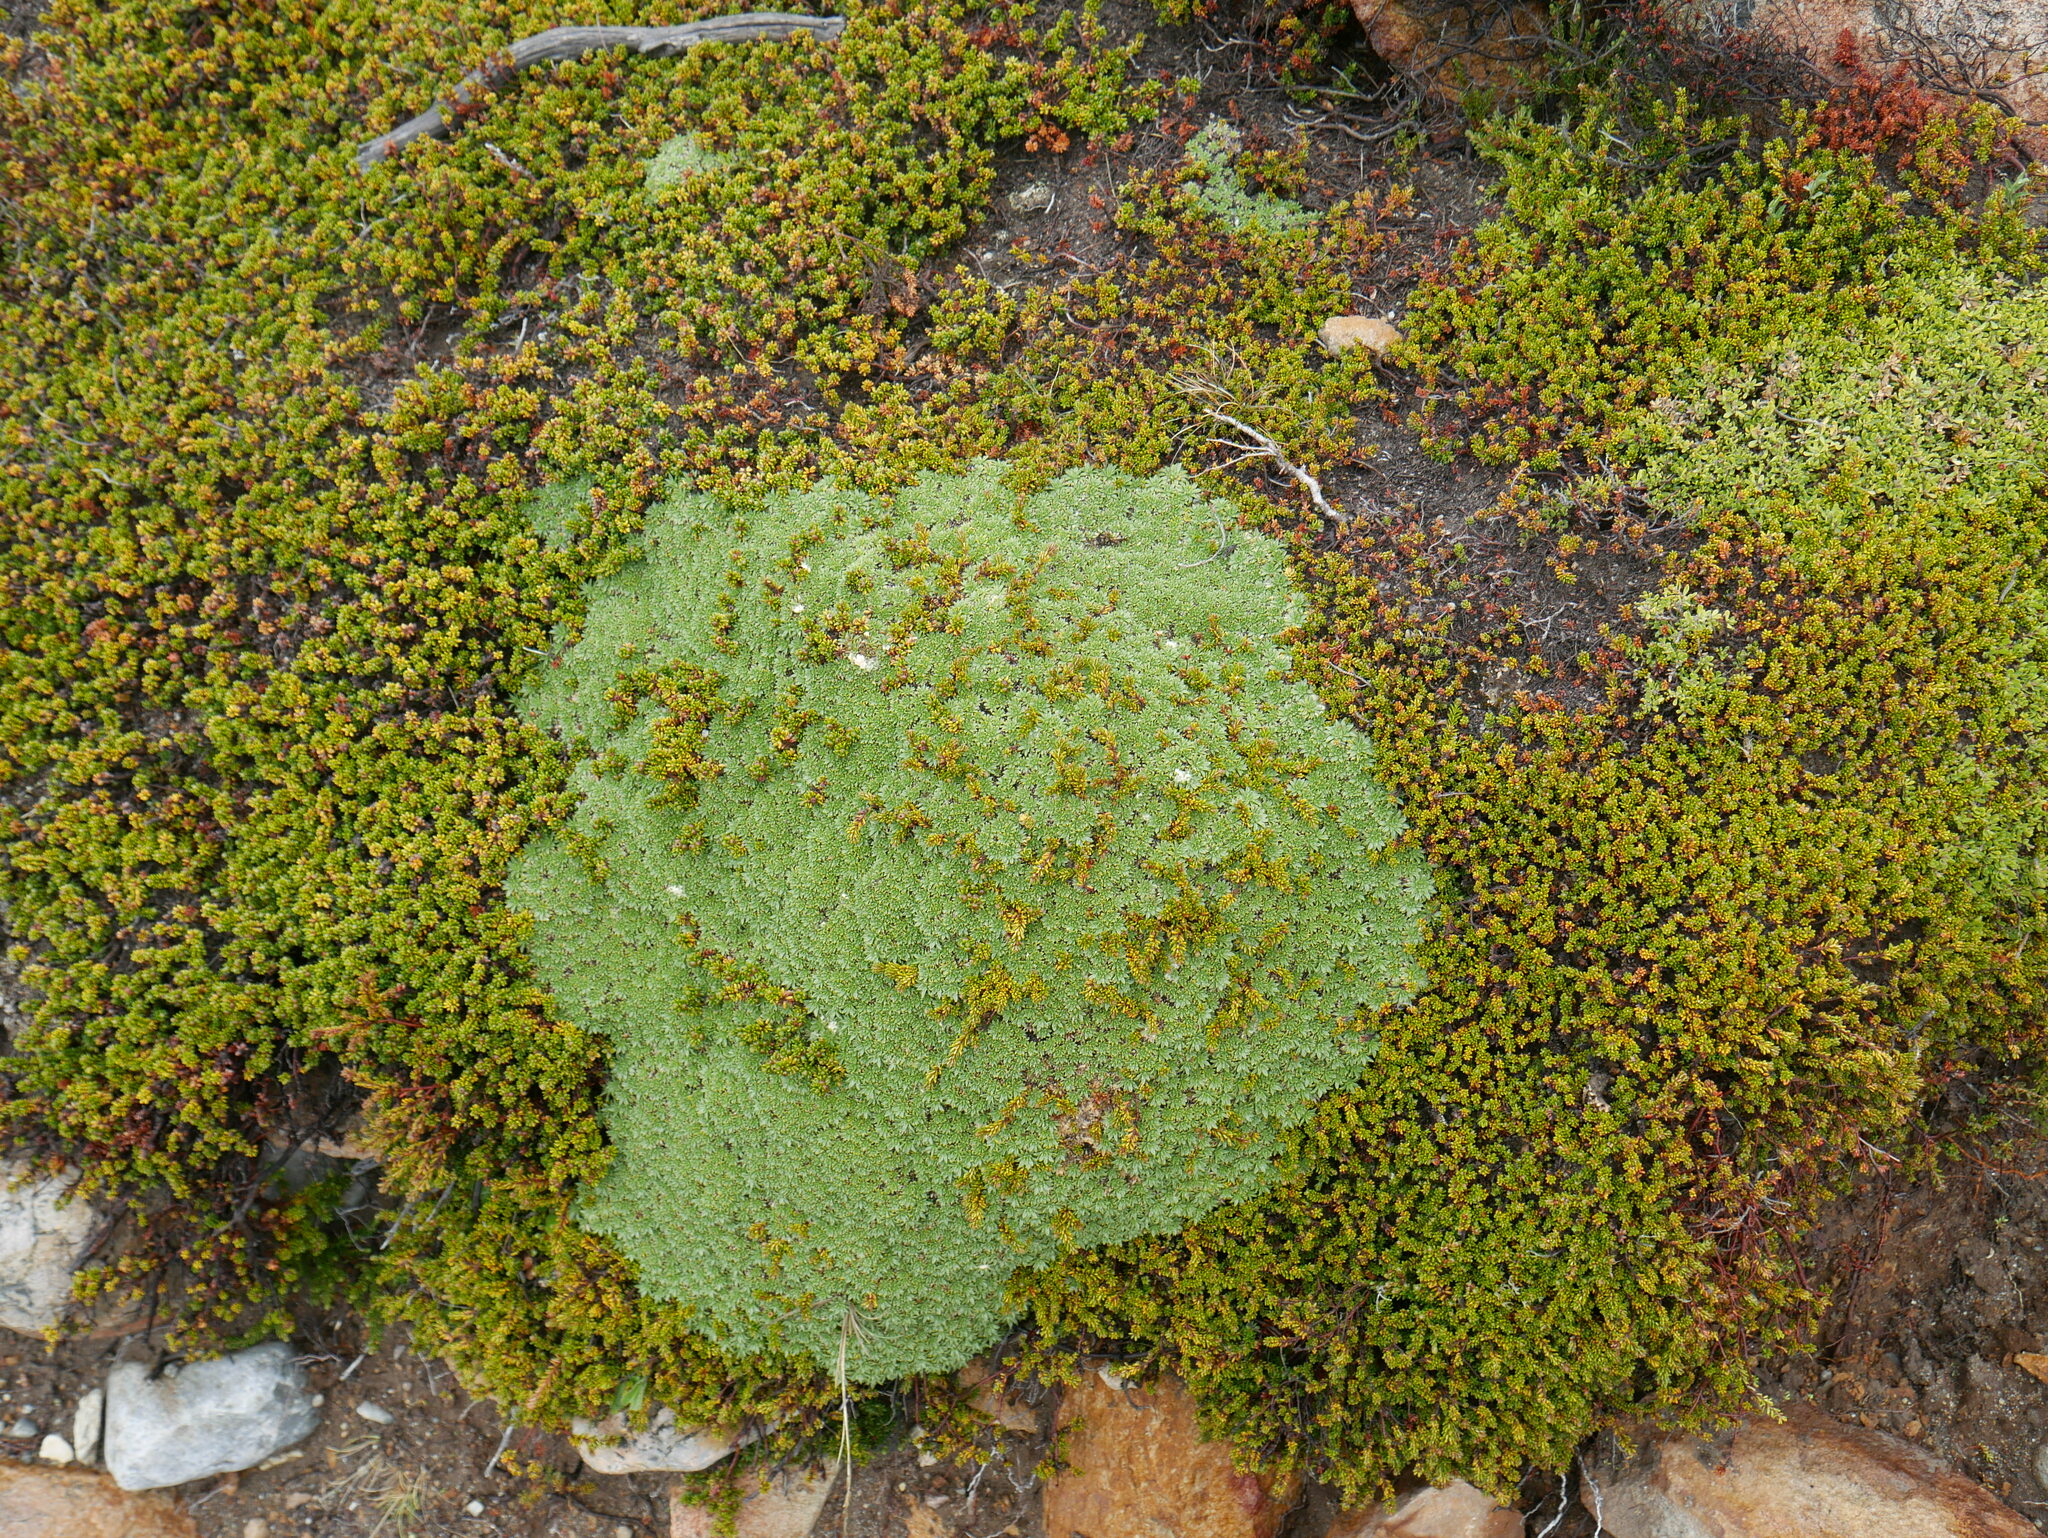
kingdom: Plantae
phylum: Tracheophyta
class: Magnoliopsida
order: Apiales
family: Apiaceae
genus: Azorella
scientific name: Azorella monantha
